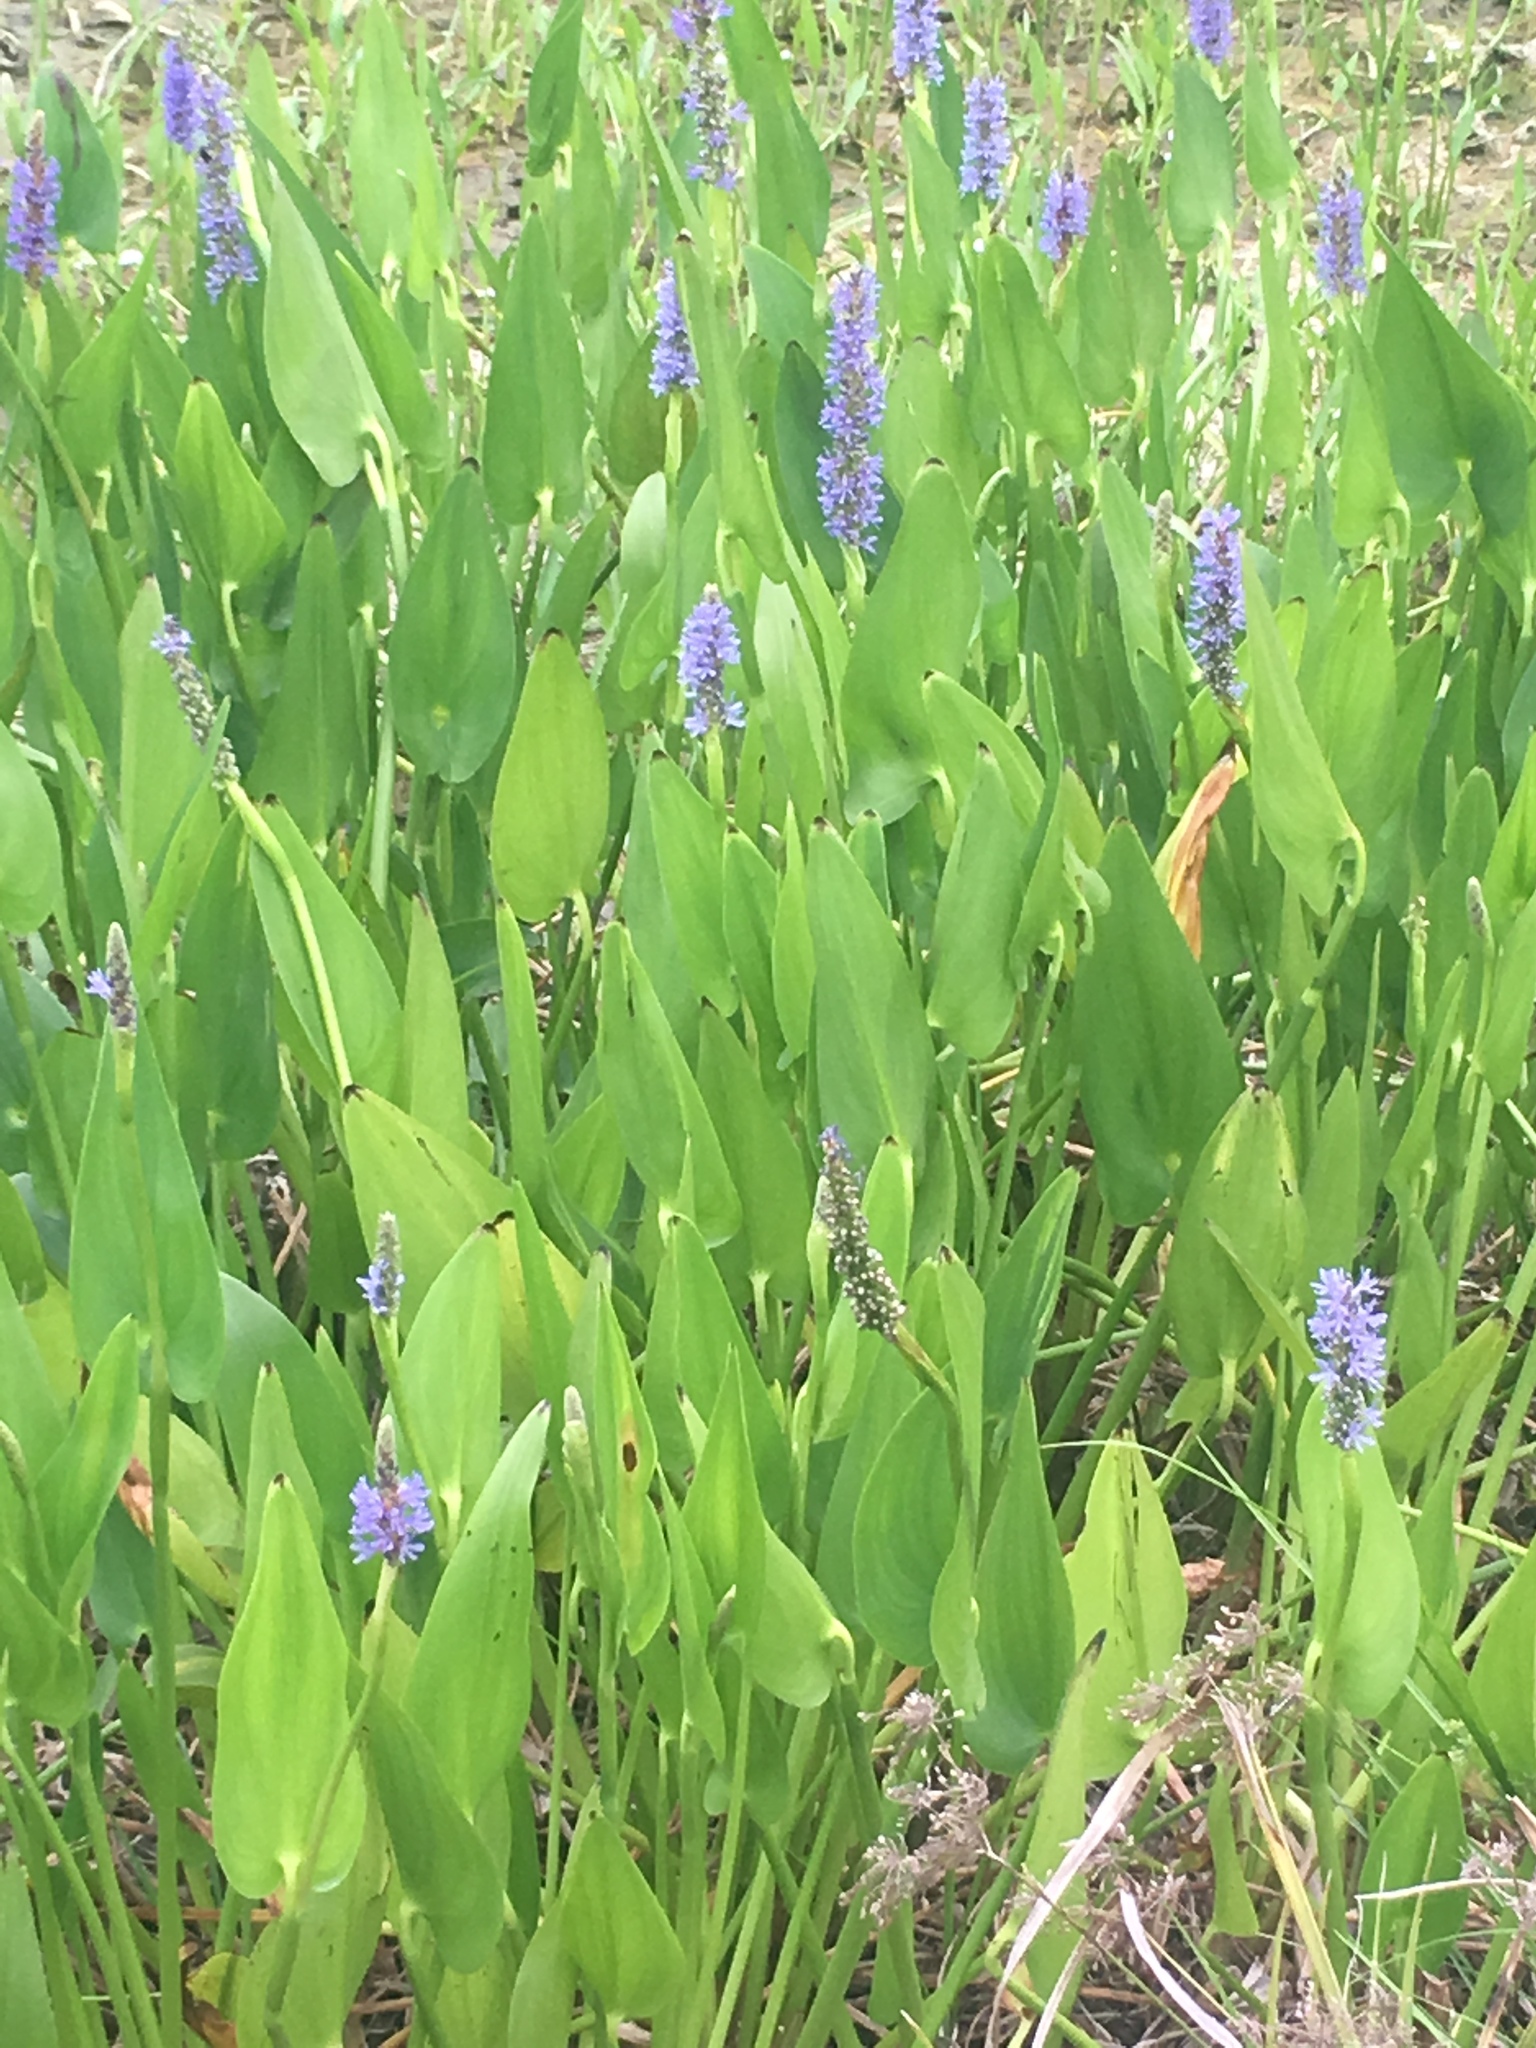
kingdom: Plantae
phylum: Tracheophyta
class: Liliopsida
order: Commelinales
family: Pontederiaceae
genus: Pontederia
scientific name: Pontederia cordata
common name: Pickerelweed
